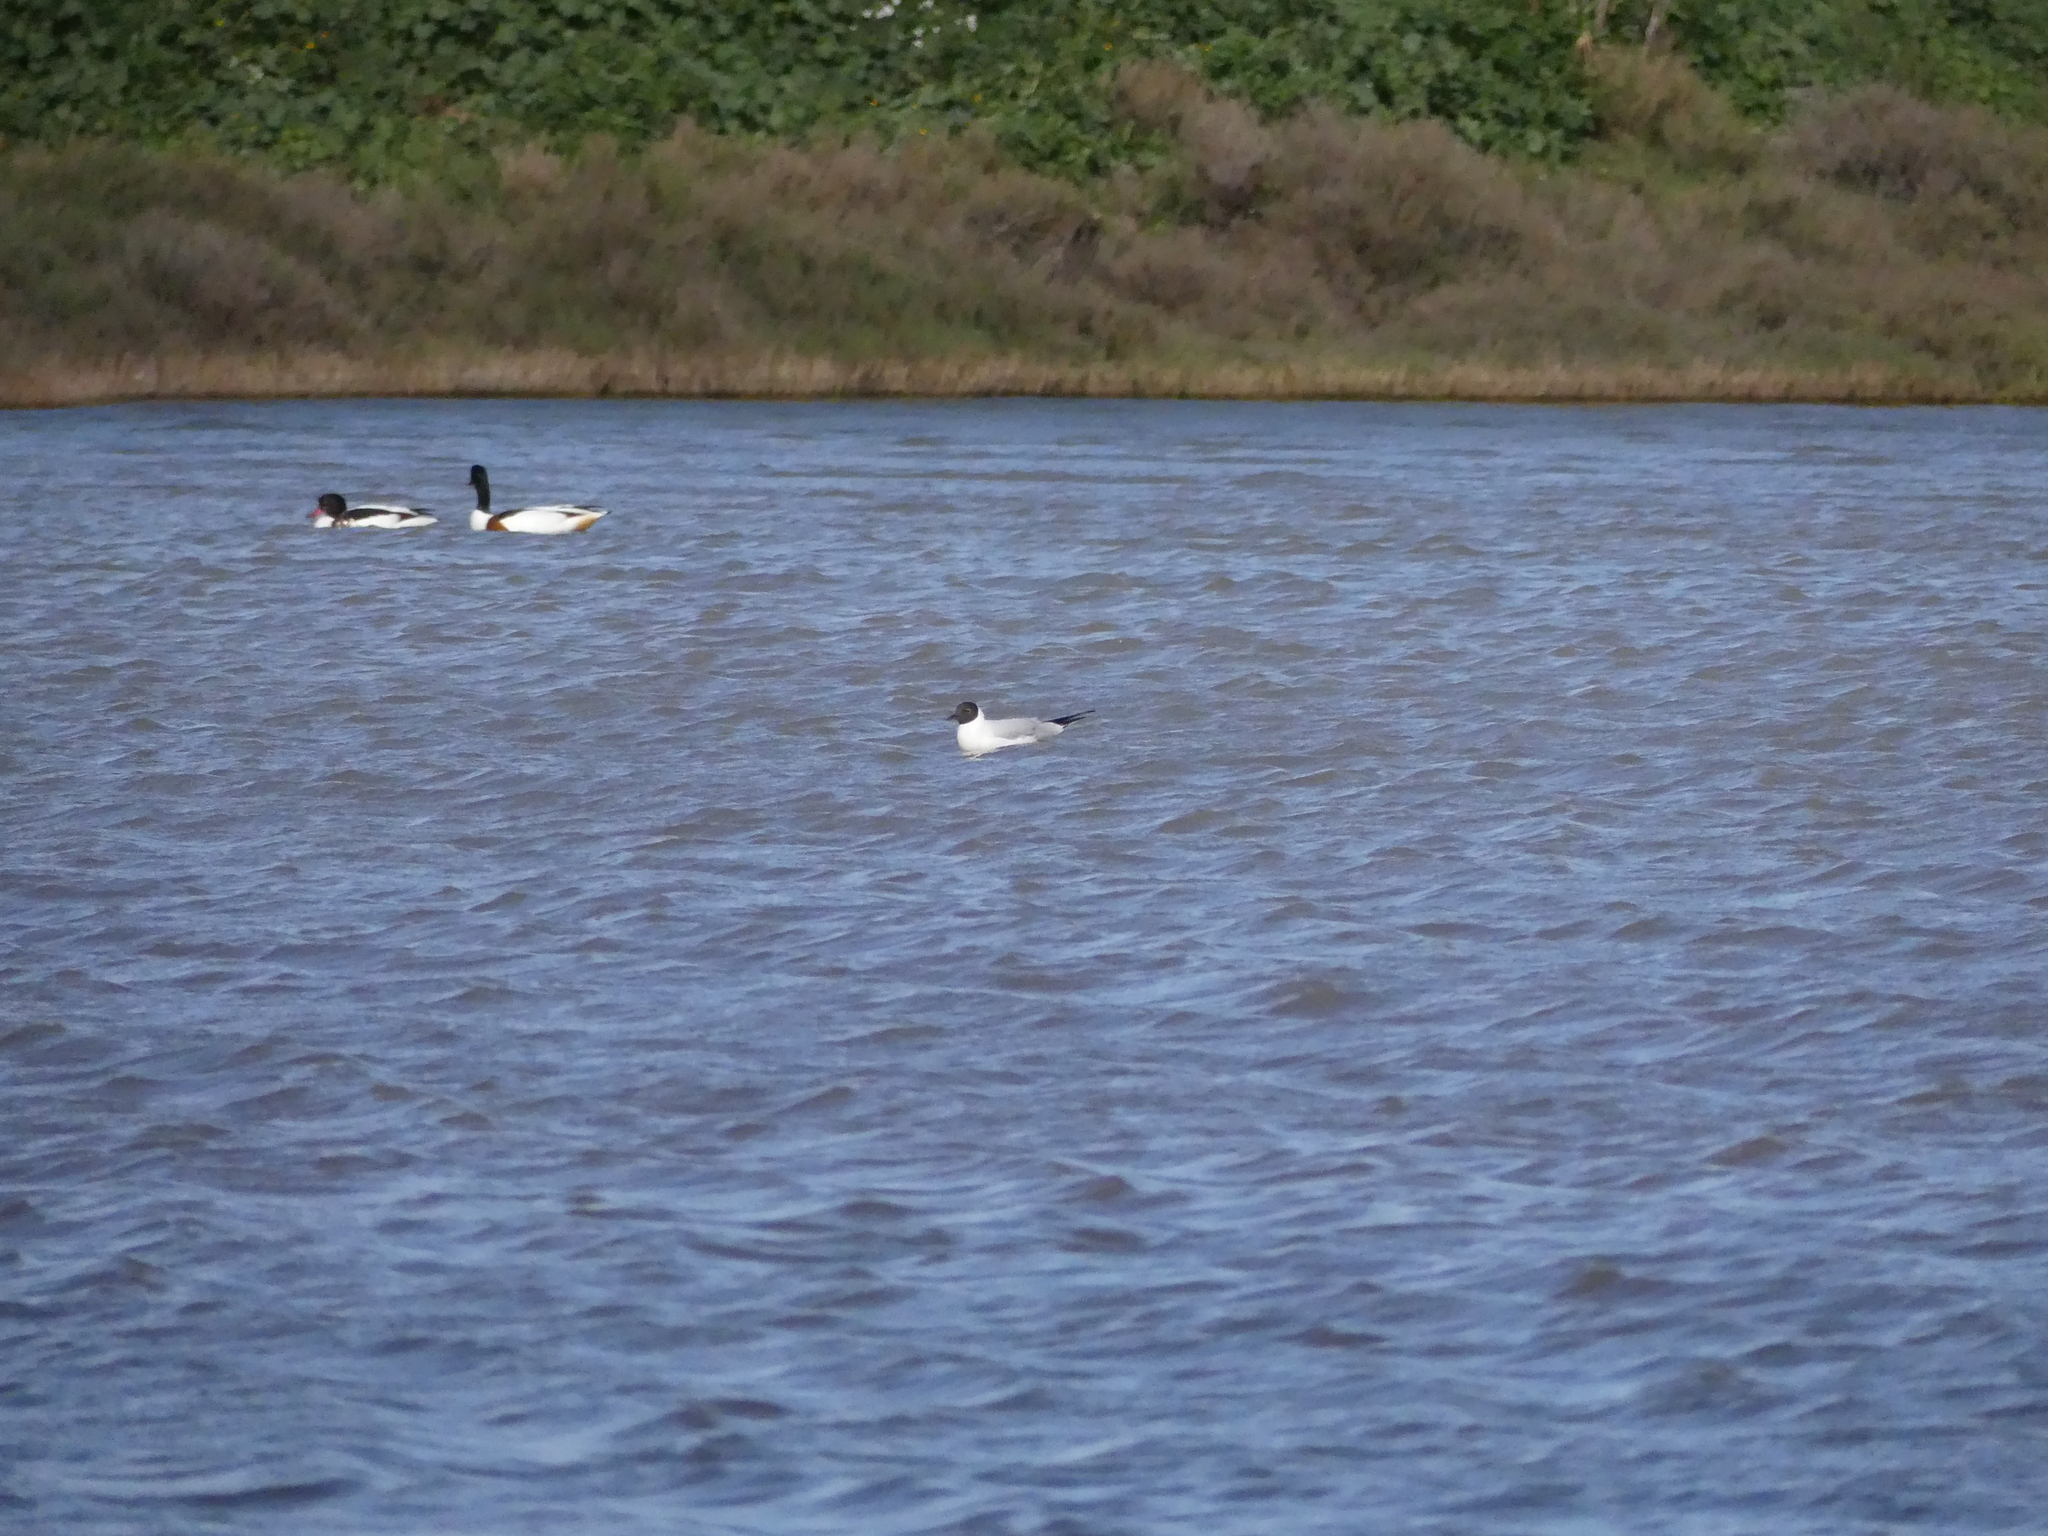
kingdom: Animalia
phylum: Chordata
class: Aves
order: Charadriiformes
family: Laridae
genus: Chroicocephalus
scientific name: Chroicocephalus ridibundus
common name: Black-headed gull
